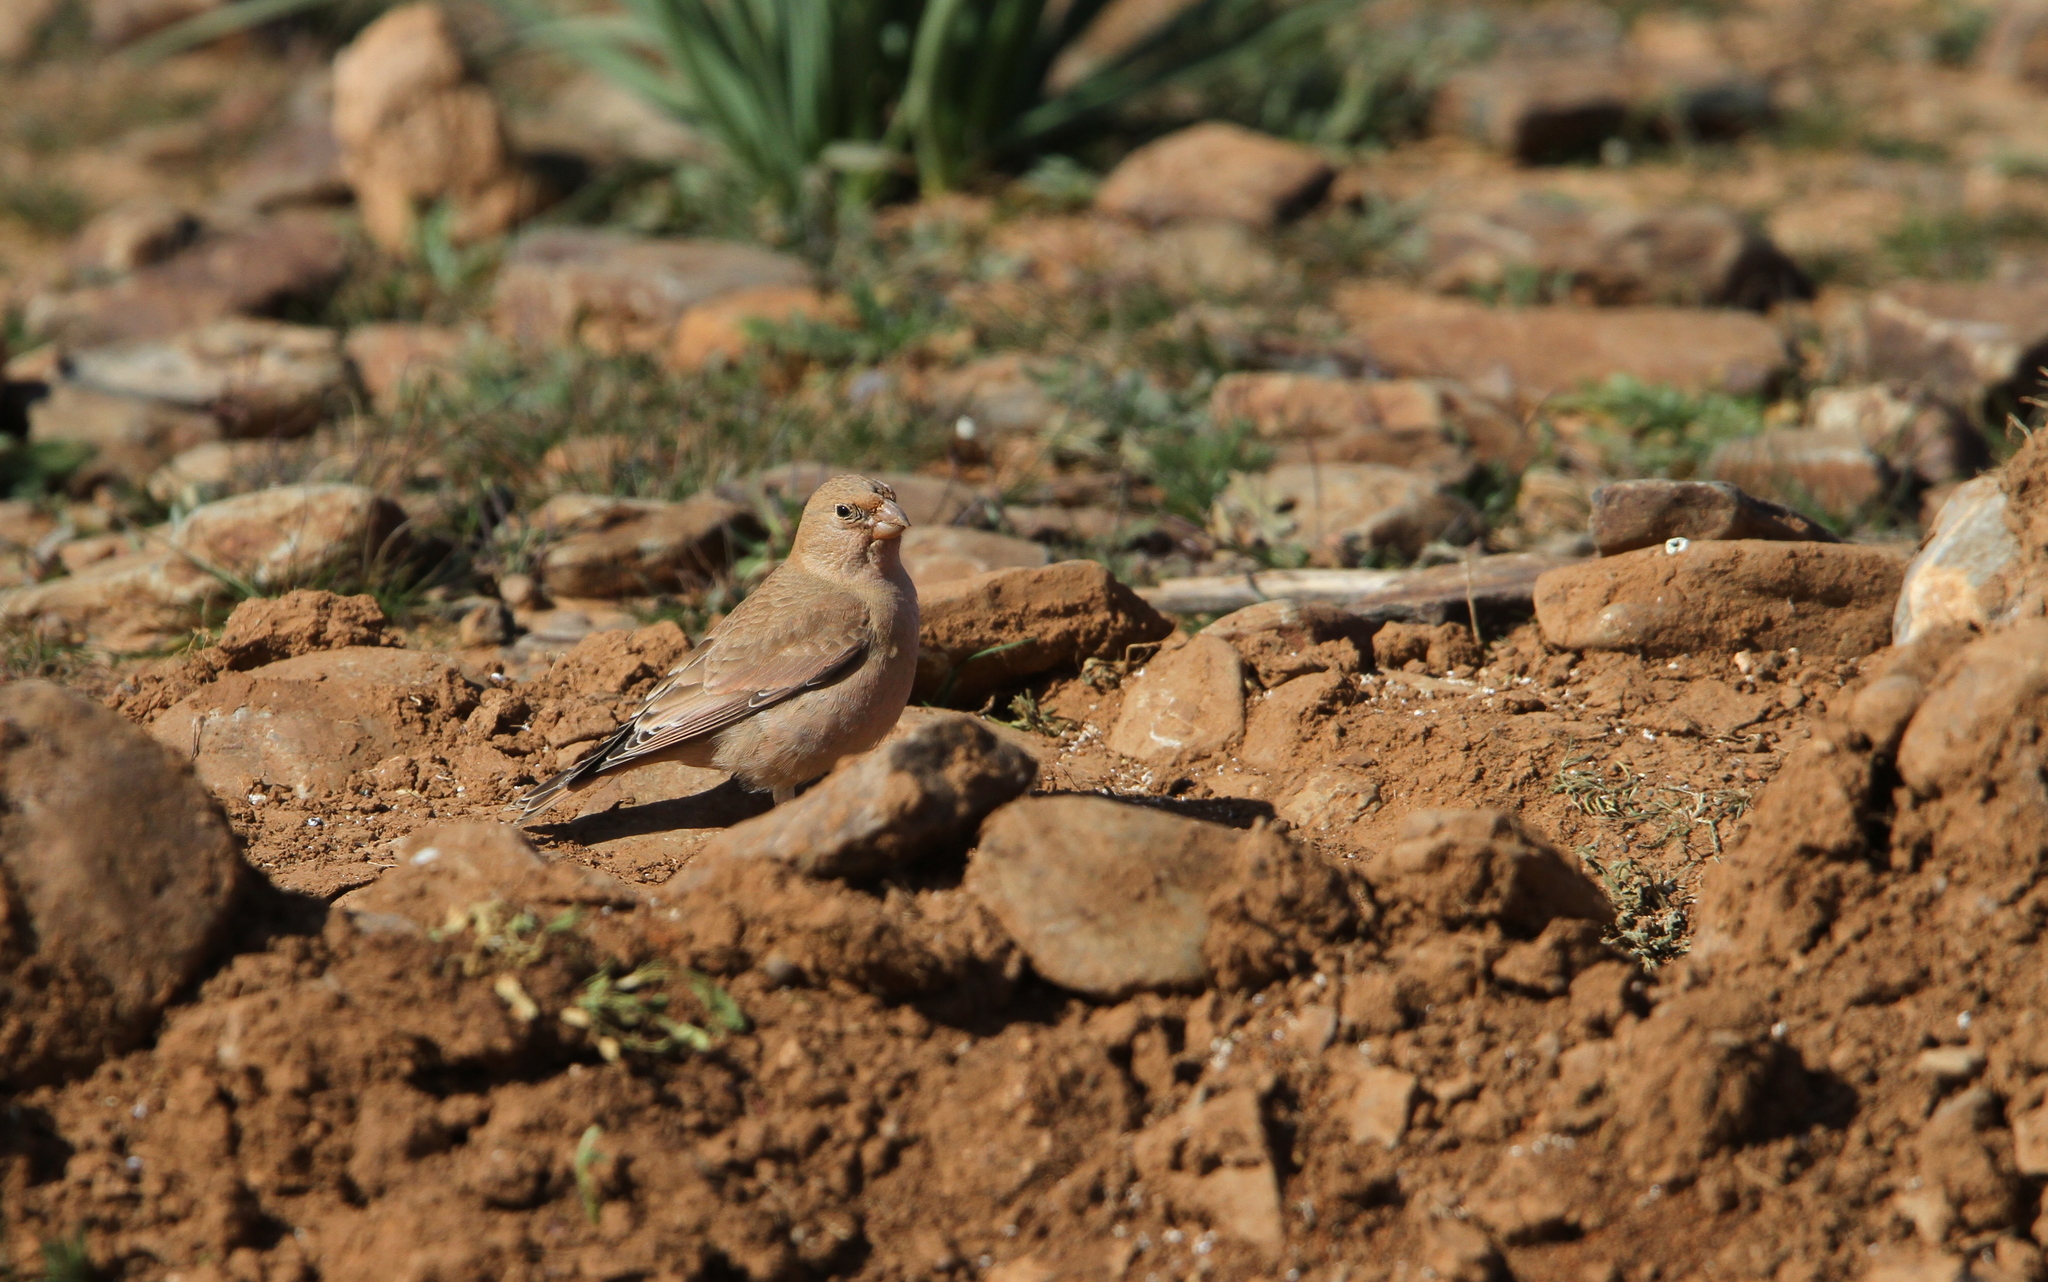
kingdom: Animalia
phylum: Chordata
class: Aves
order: Passeriformes
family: Fringillidae
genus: Bucanetes
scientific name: Bucanetes githagineus
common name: Trumpeter finch
